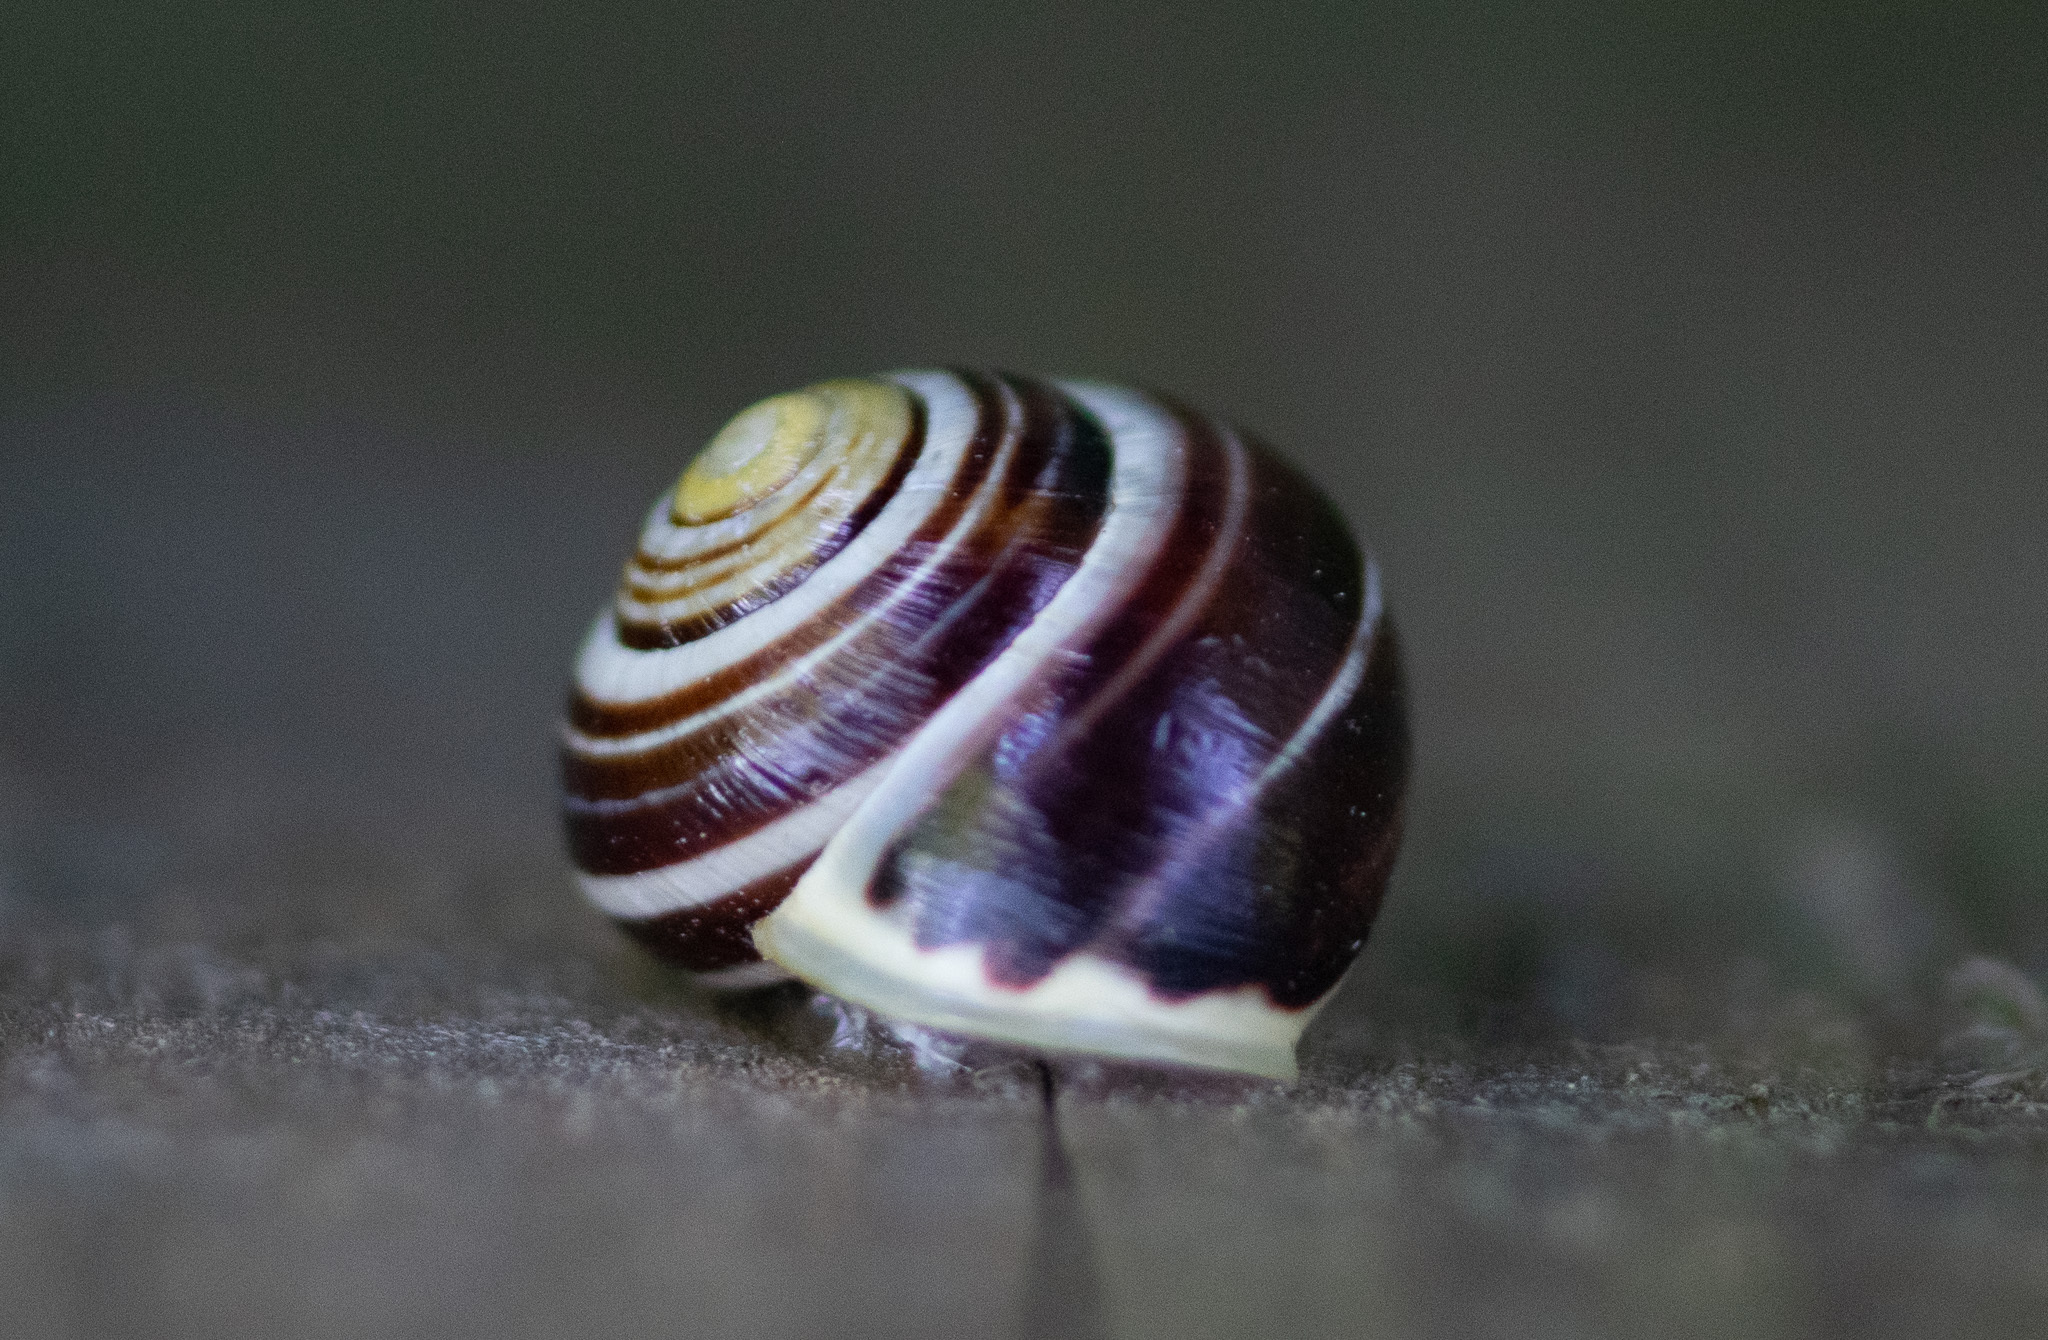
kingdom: Animalia
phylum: Mollusca
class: Gastropoda
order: Stylommatophora
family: Helicidae
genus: Cepaea
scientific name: Cepaea hortensis
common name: White-lip gardensnail
